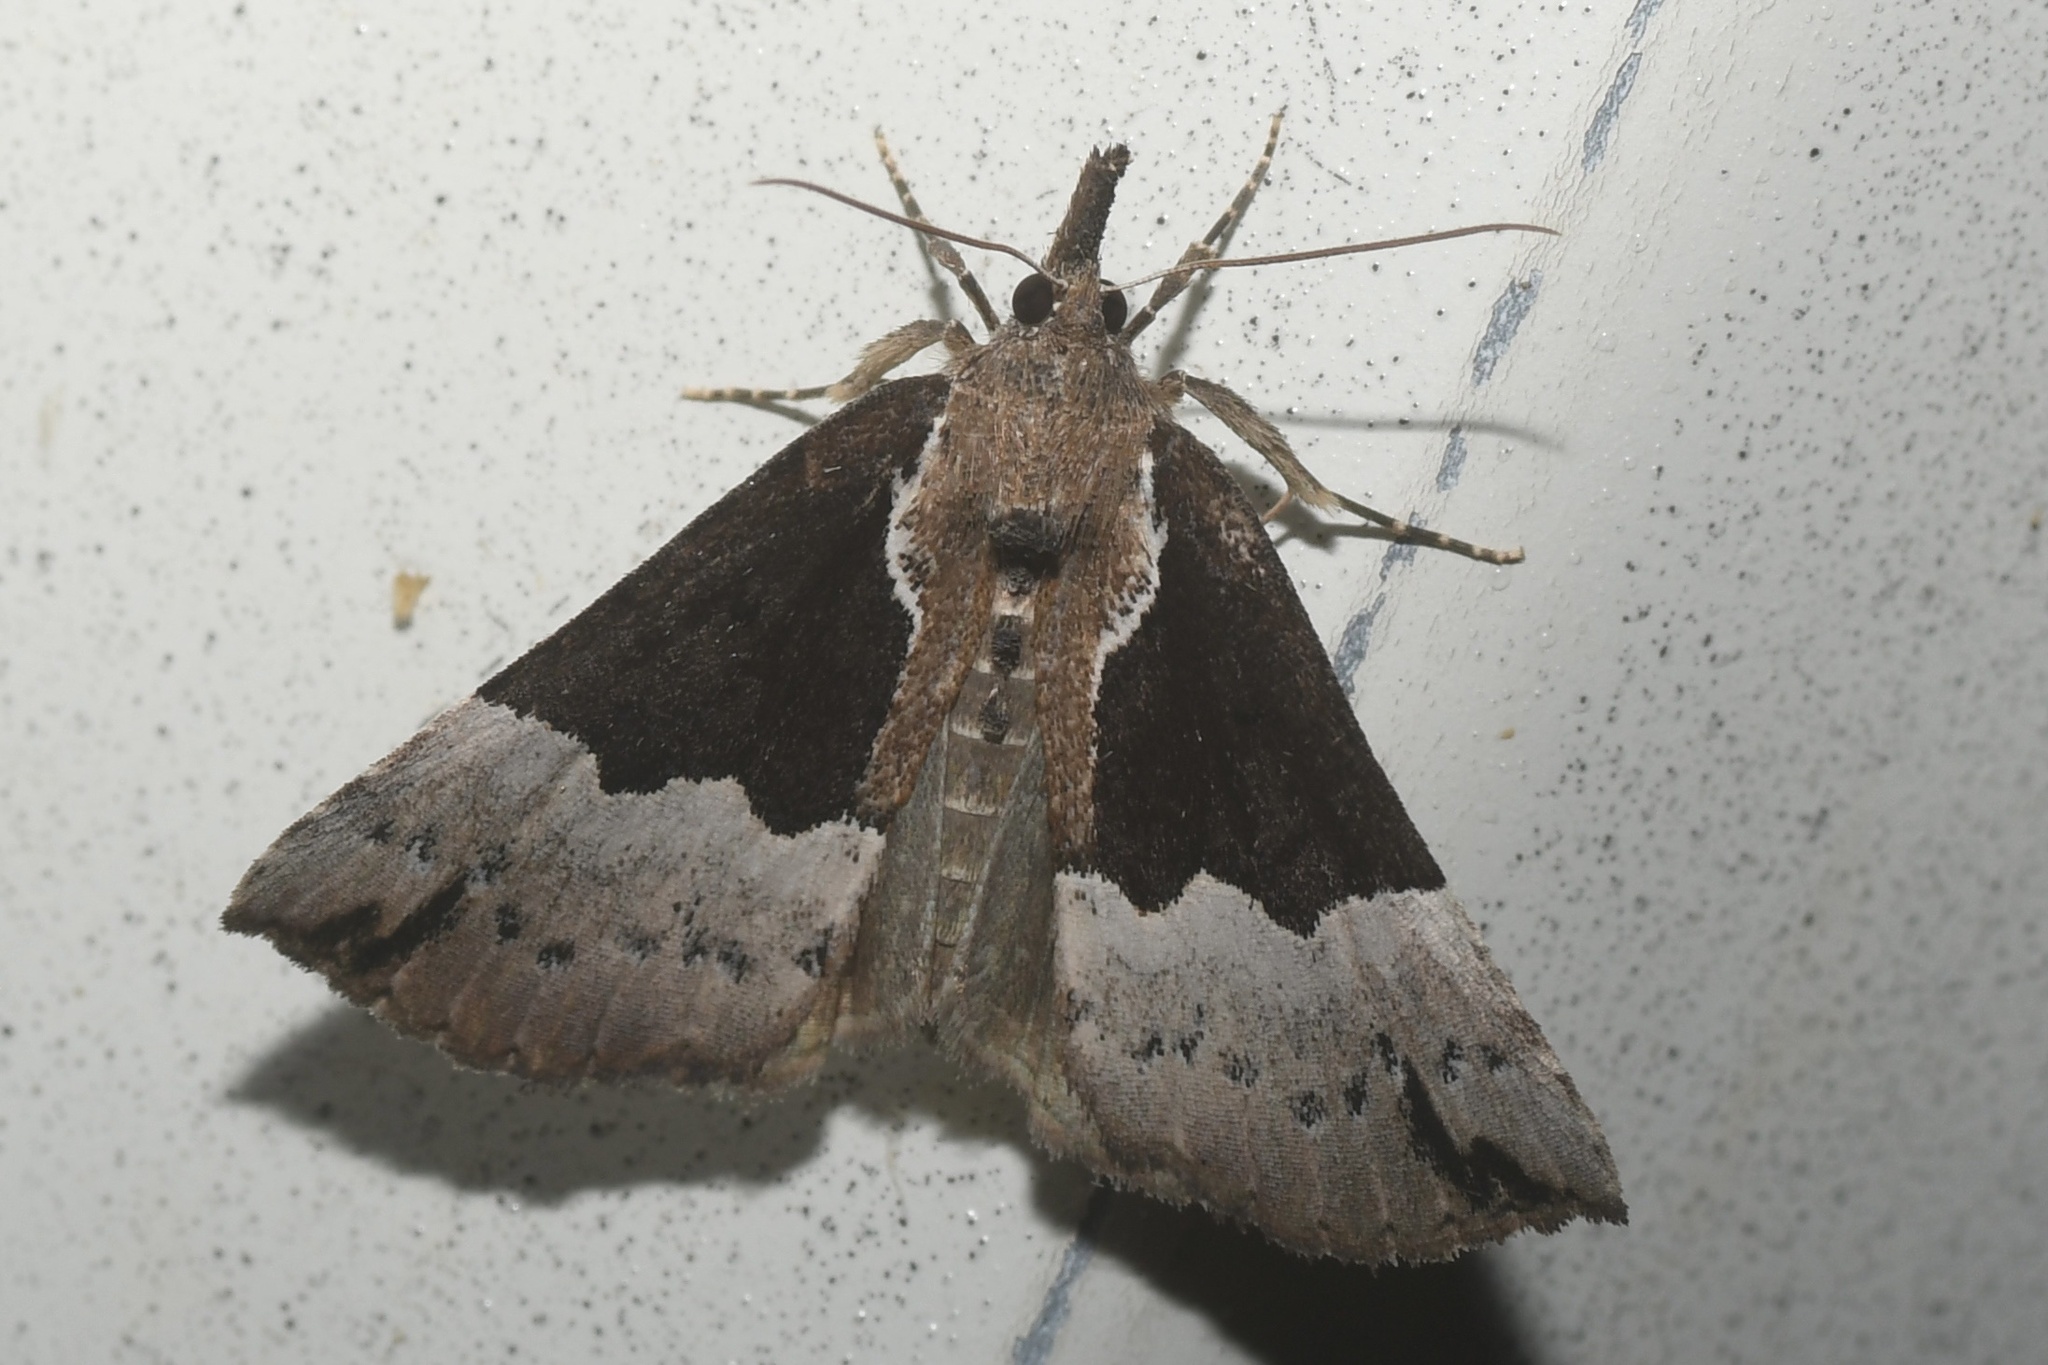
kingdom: Animalia
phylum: Arthropoda
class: Insecta
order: Lepidoptera
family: Erebidae
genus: Hypena
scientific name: Hypena bijugalis
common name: Dimorphic bomolocha moth
